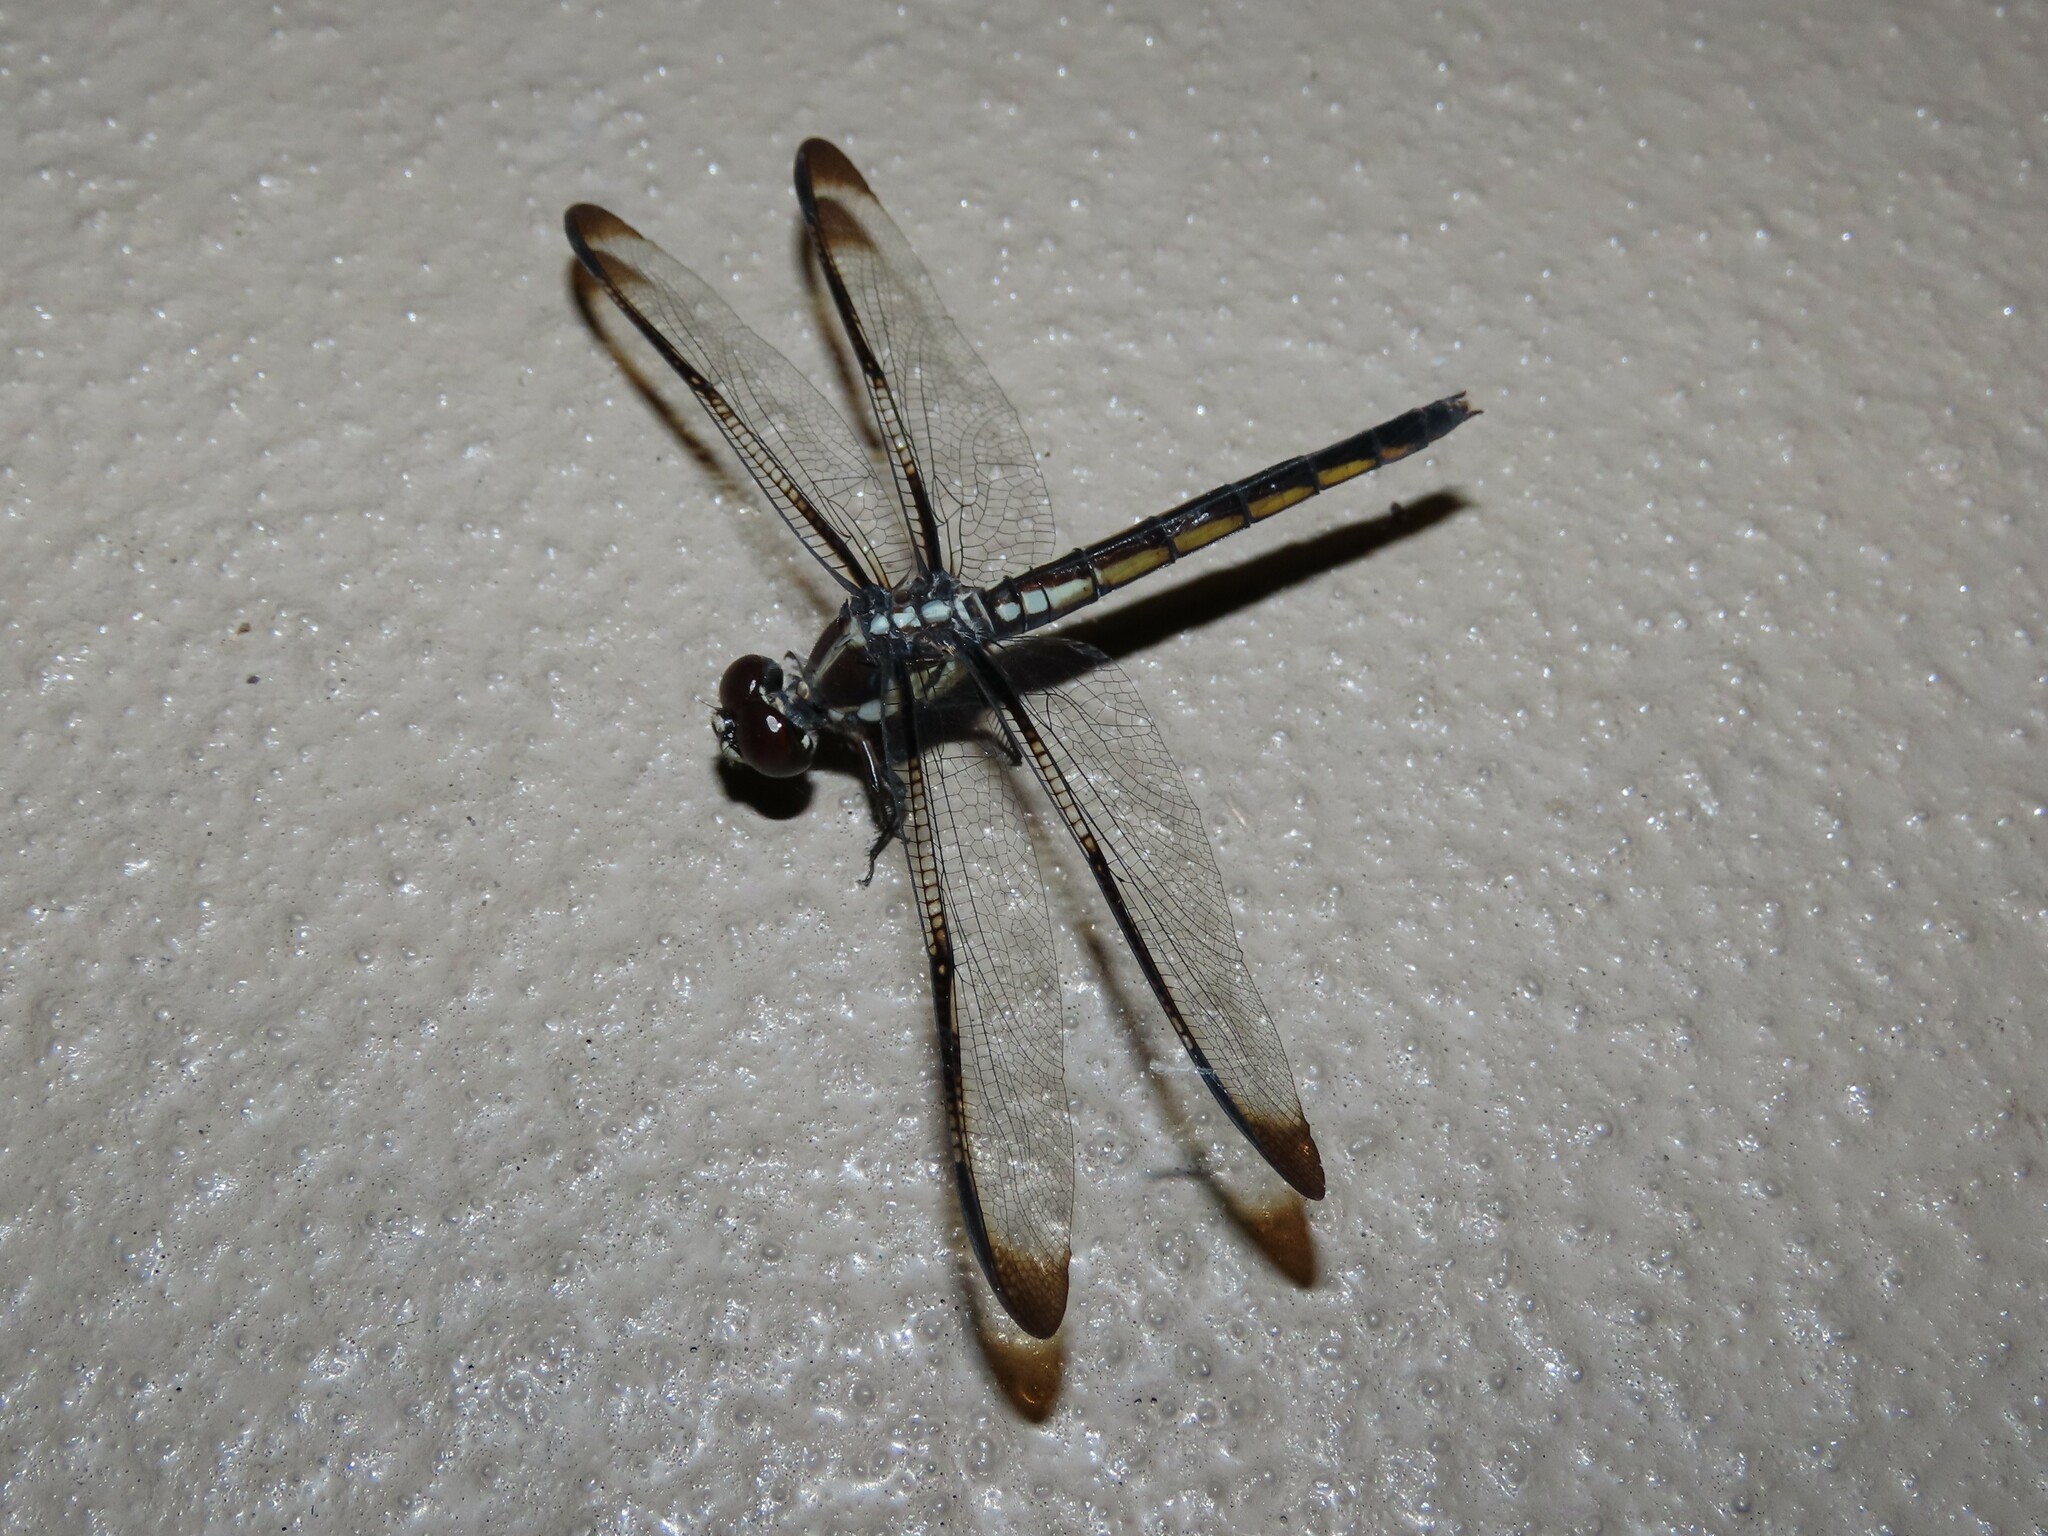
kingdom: Animalia
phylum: Arthropoda
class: Insecta
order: Odonata
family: Libellulidae
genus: Libellula
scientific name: Libellula axilena
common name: Bar-winged skimmer
